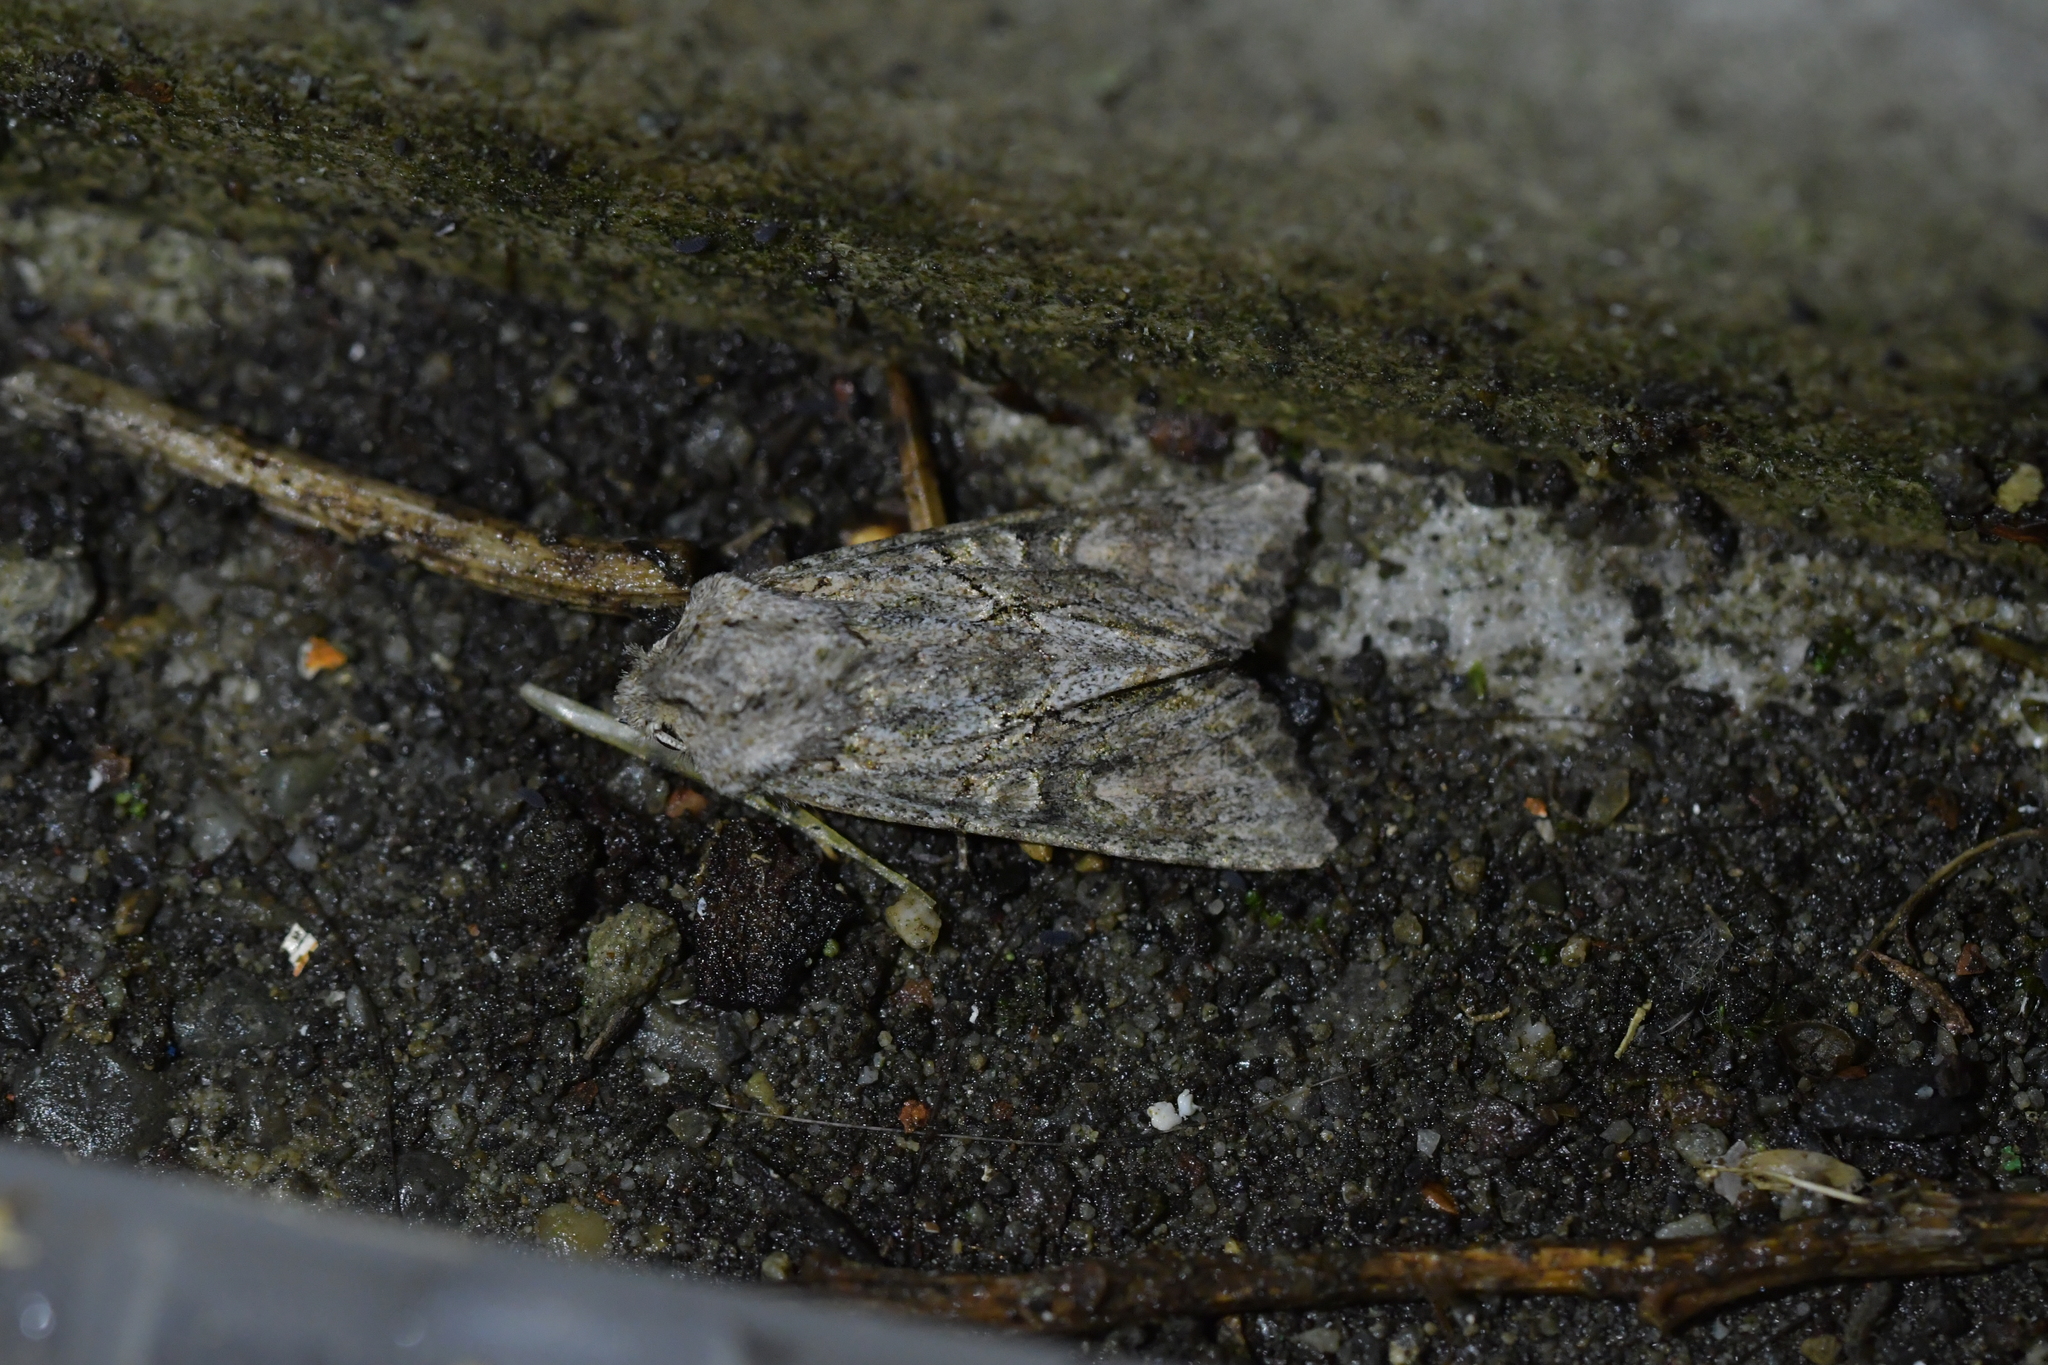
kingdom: Animalia
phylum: Arthropoda
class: Insecta
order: Lepidoptera
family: Noctuidae
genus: Ichneutica
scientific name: Ichneutica mutans
